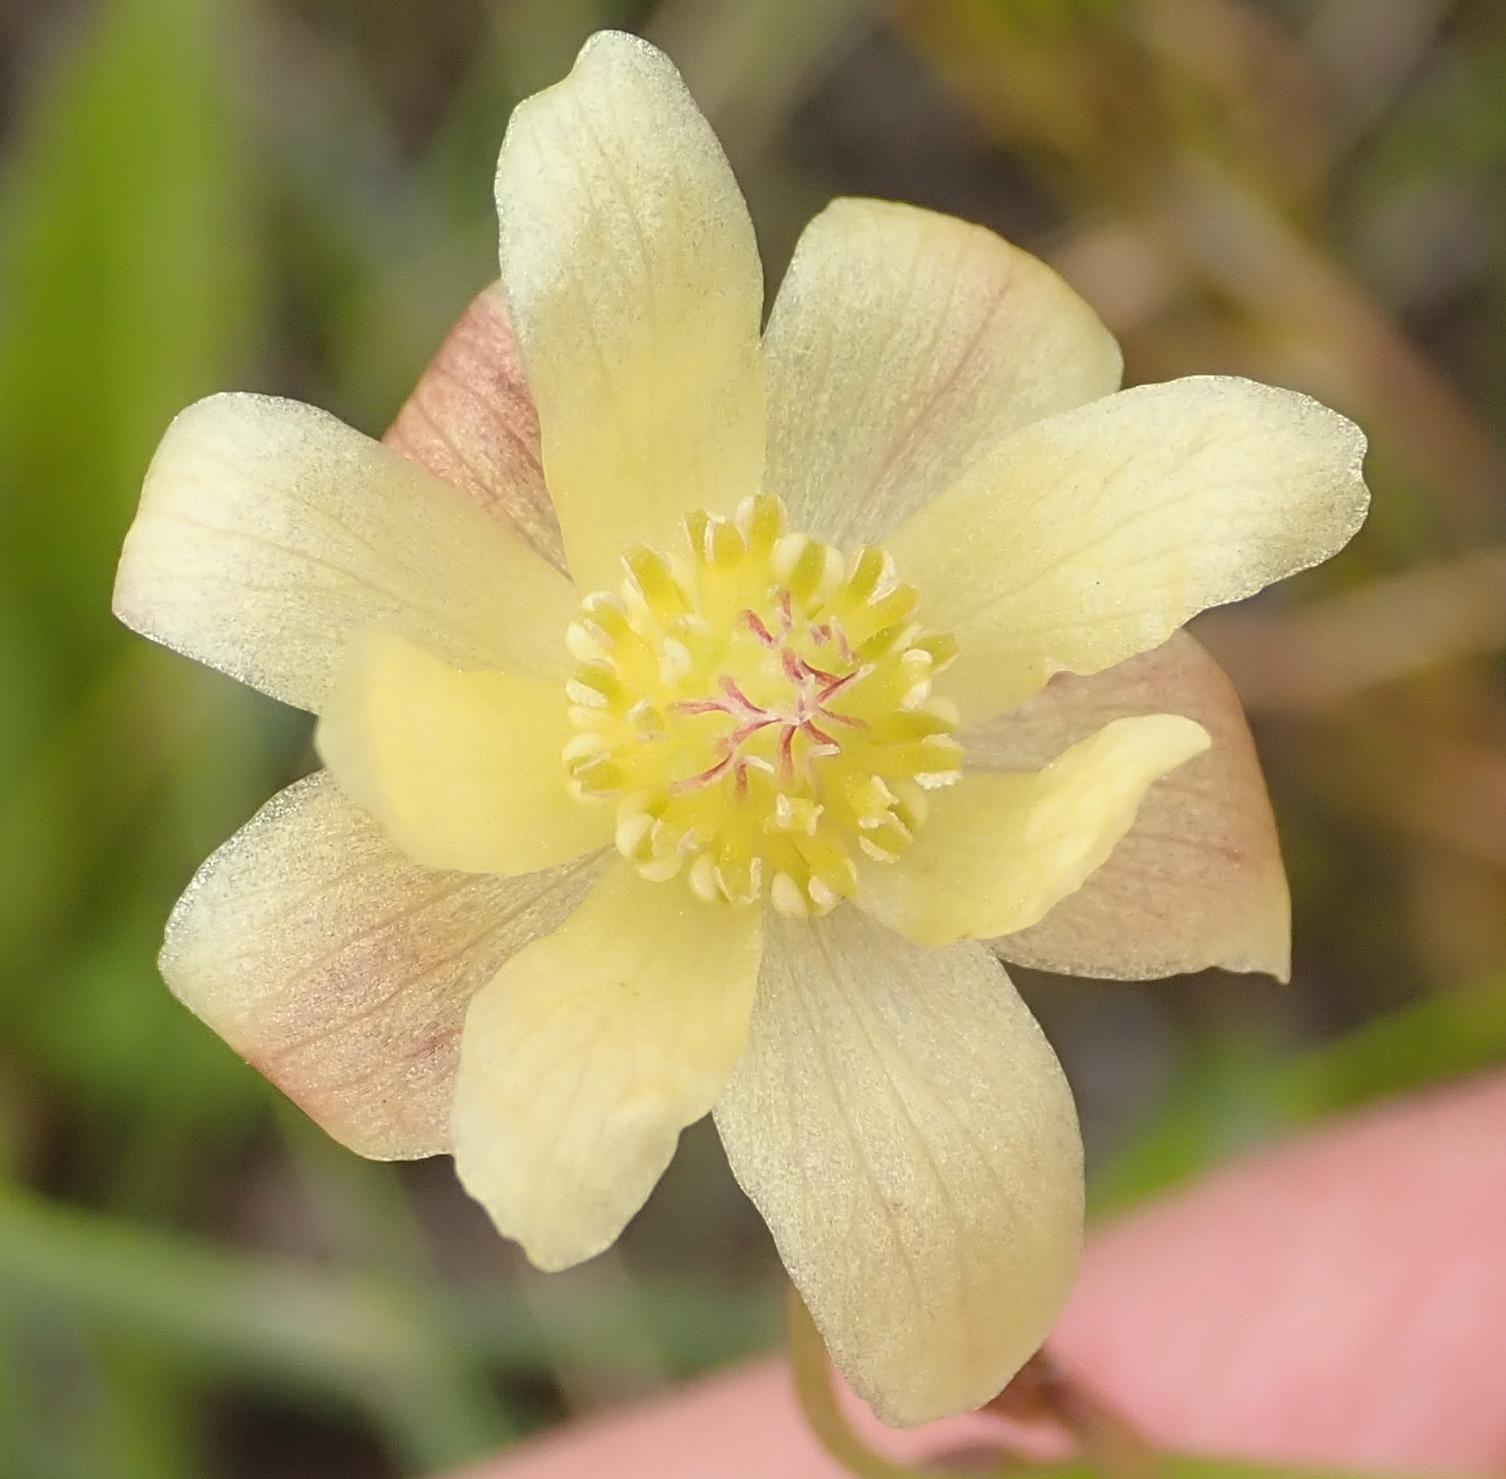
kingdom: Plantae
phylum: Tracheophyta
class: Magnoliopsida
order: Ranunculales
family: Ranunculaceae
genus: Knowltonia
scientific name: Knowltonia filia
